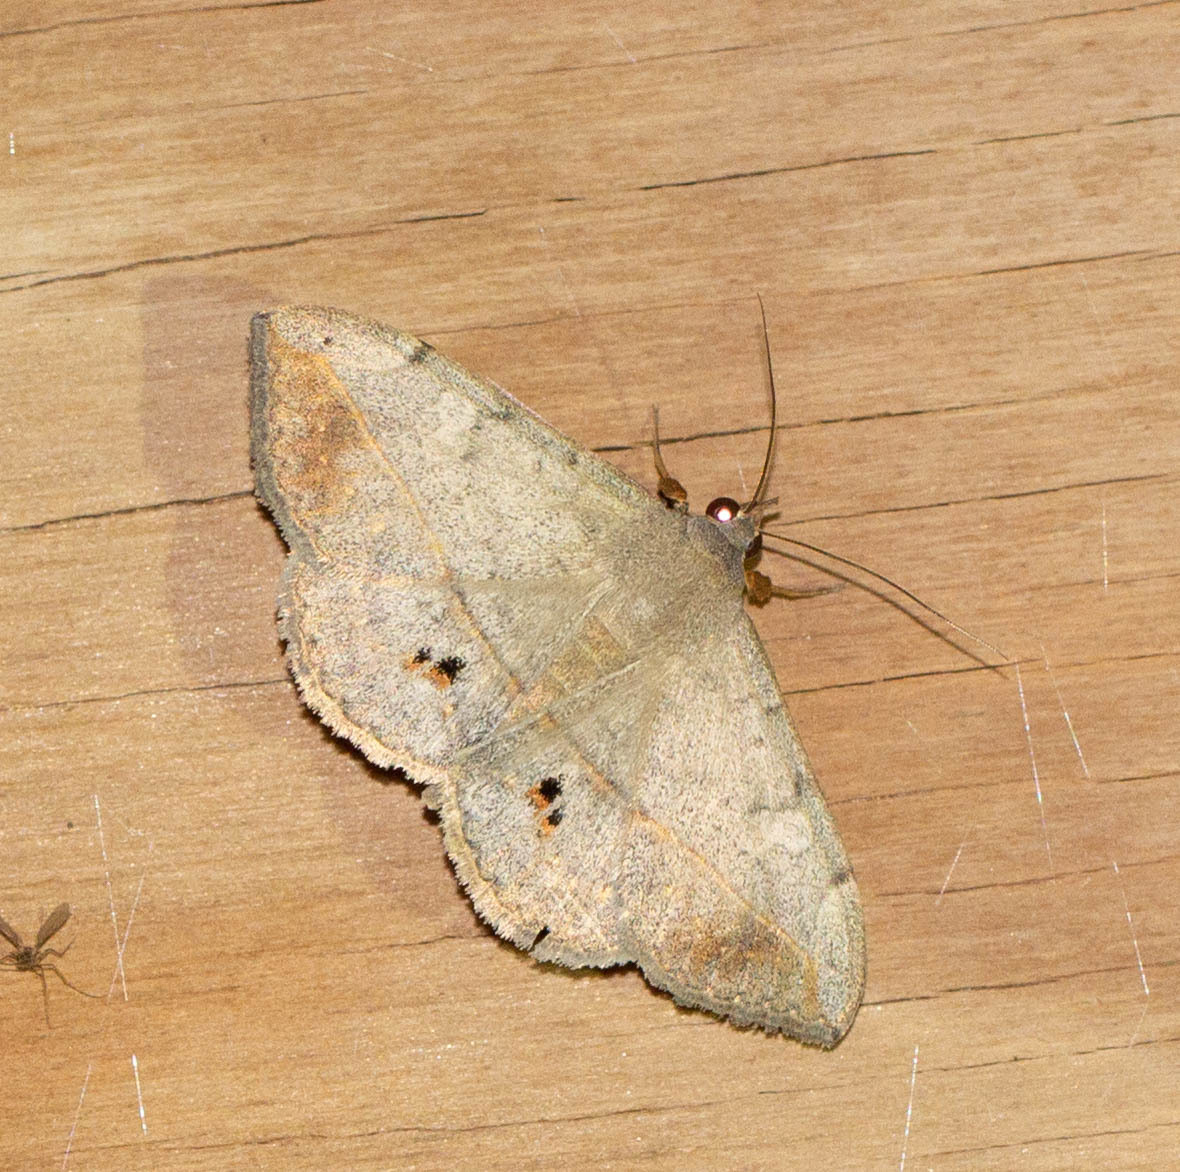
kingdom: Animalia
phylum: Arthropoda
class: Insecta
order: Lepidoptera
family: Erebidae
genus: Anticarsia
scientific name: Anticarsia gemmatalis
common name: Cutworm moth
